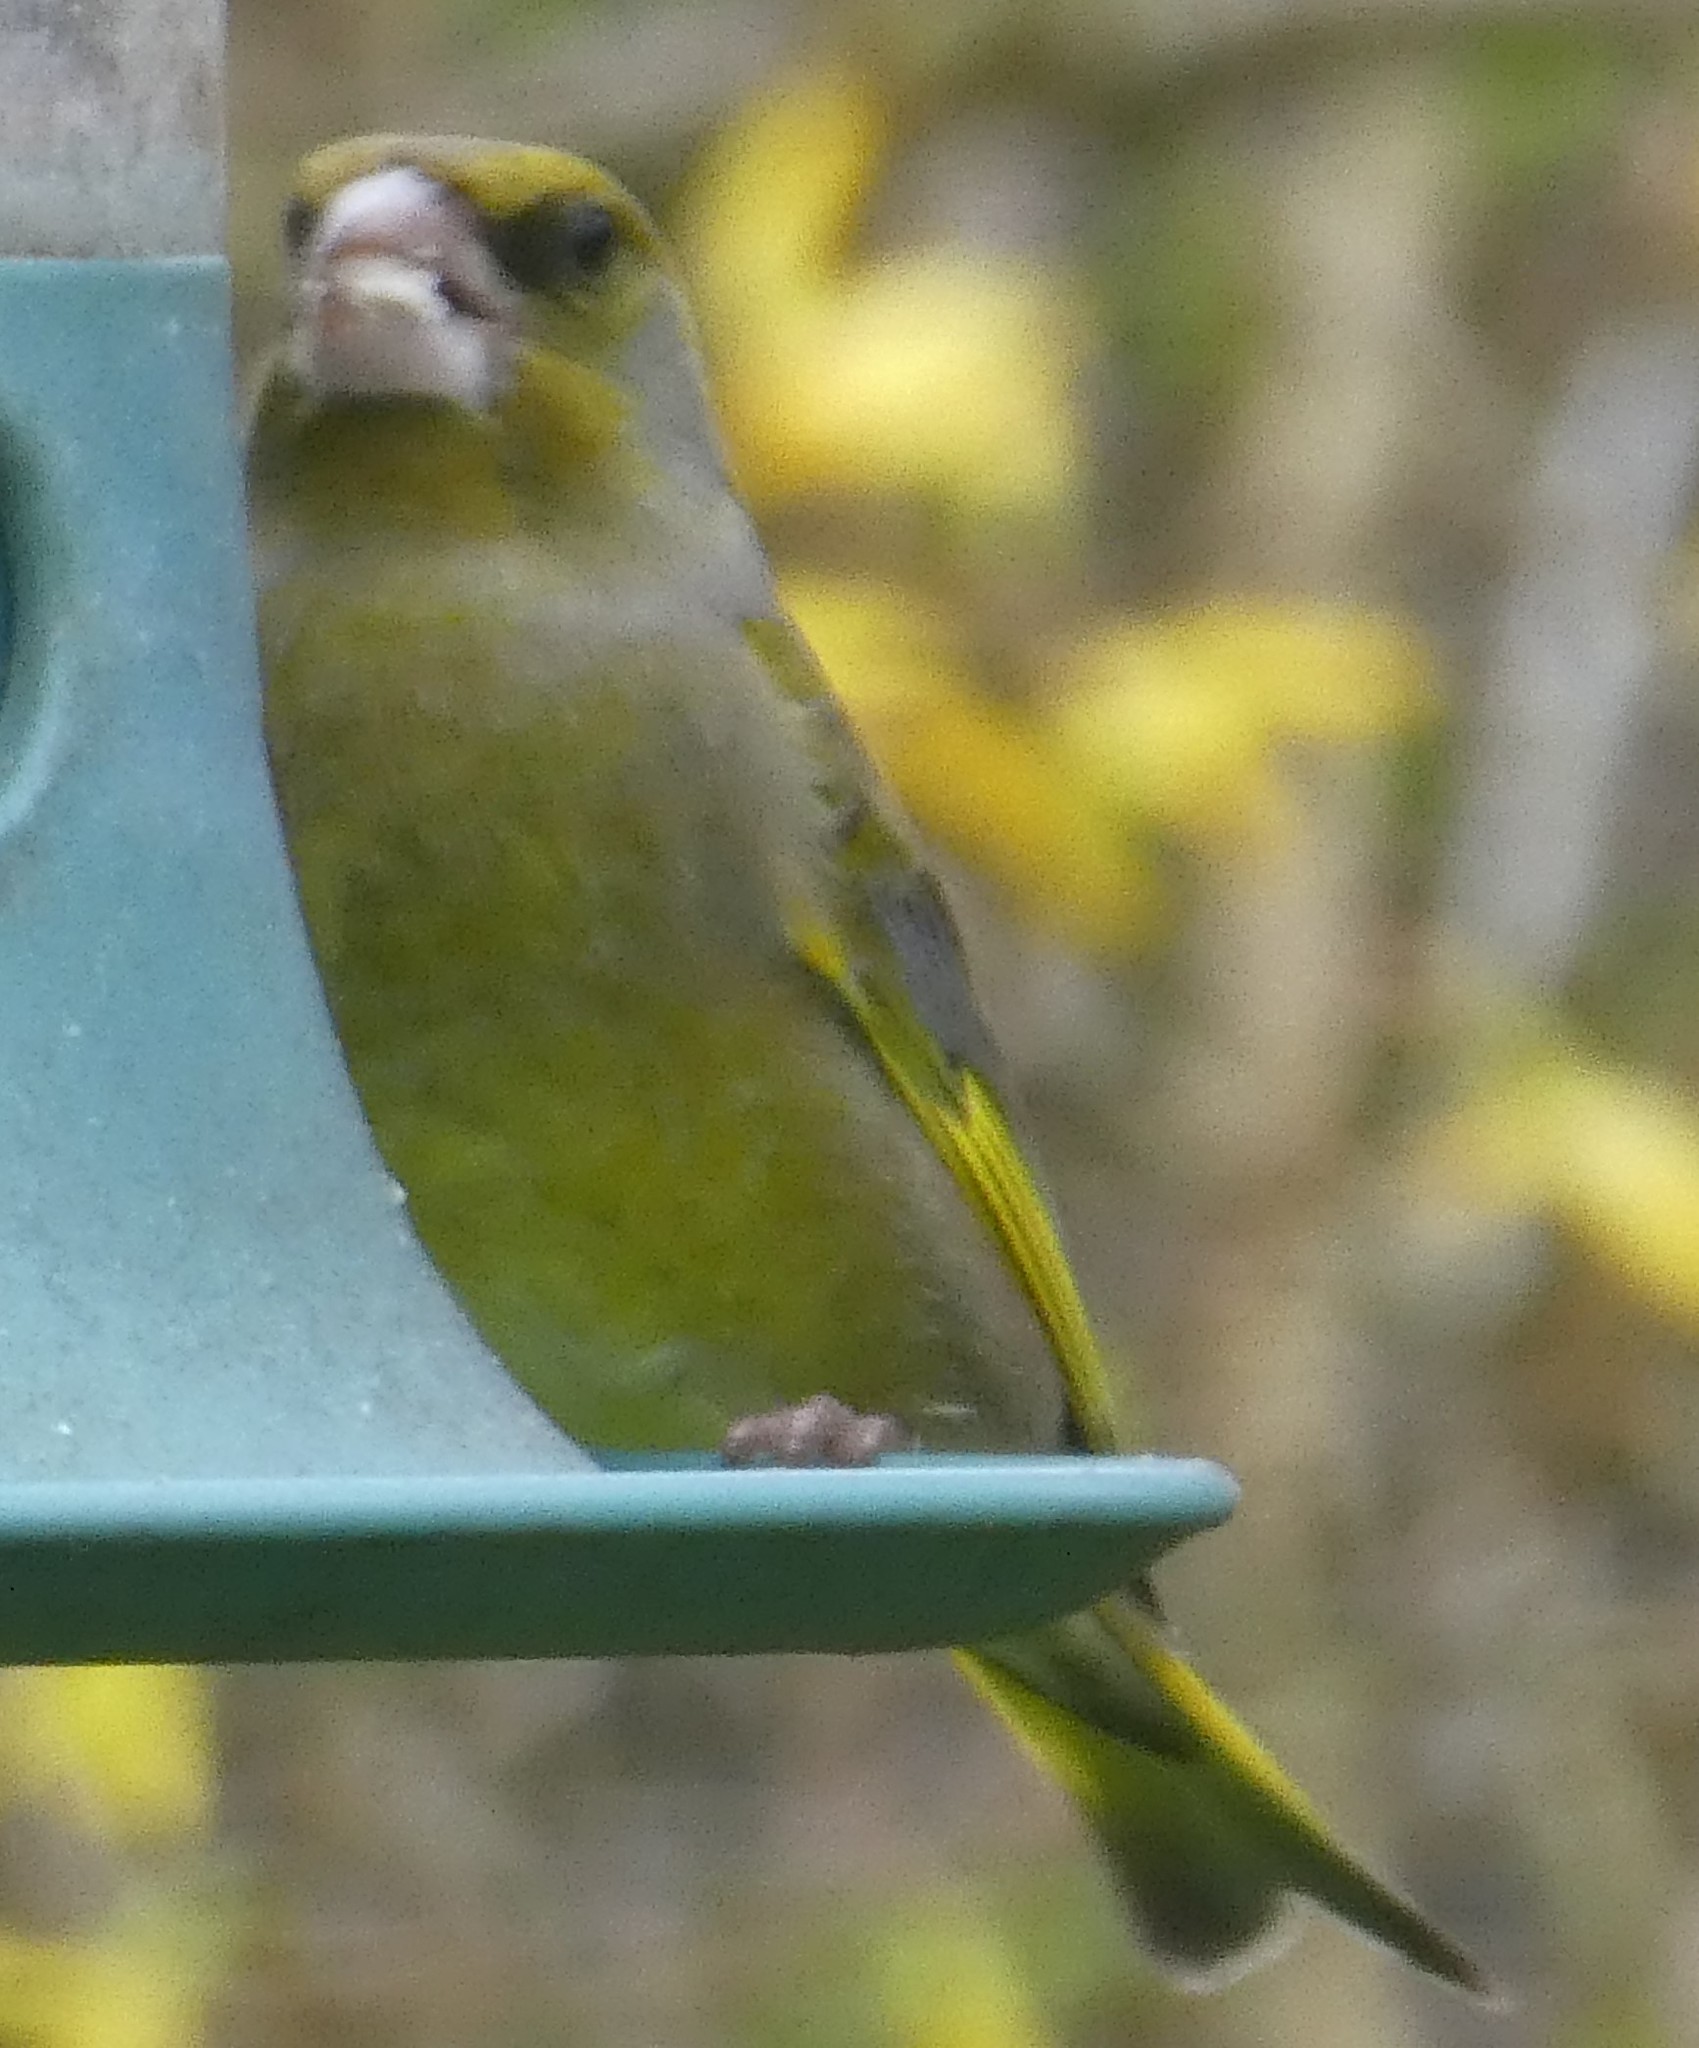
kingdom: Plantae
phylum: Tracheophyta
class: Liliopsida
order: Poales
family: Poaceae
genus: Chloris
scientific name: Chloris chloris
